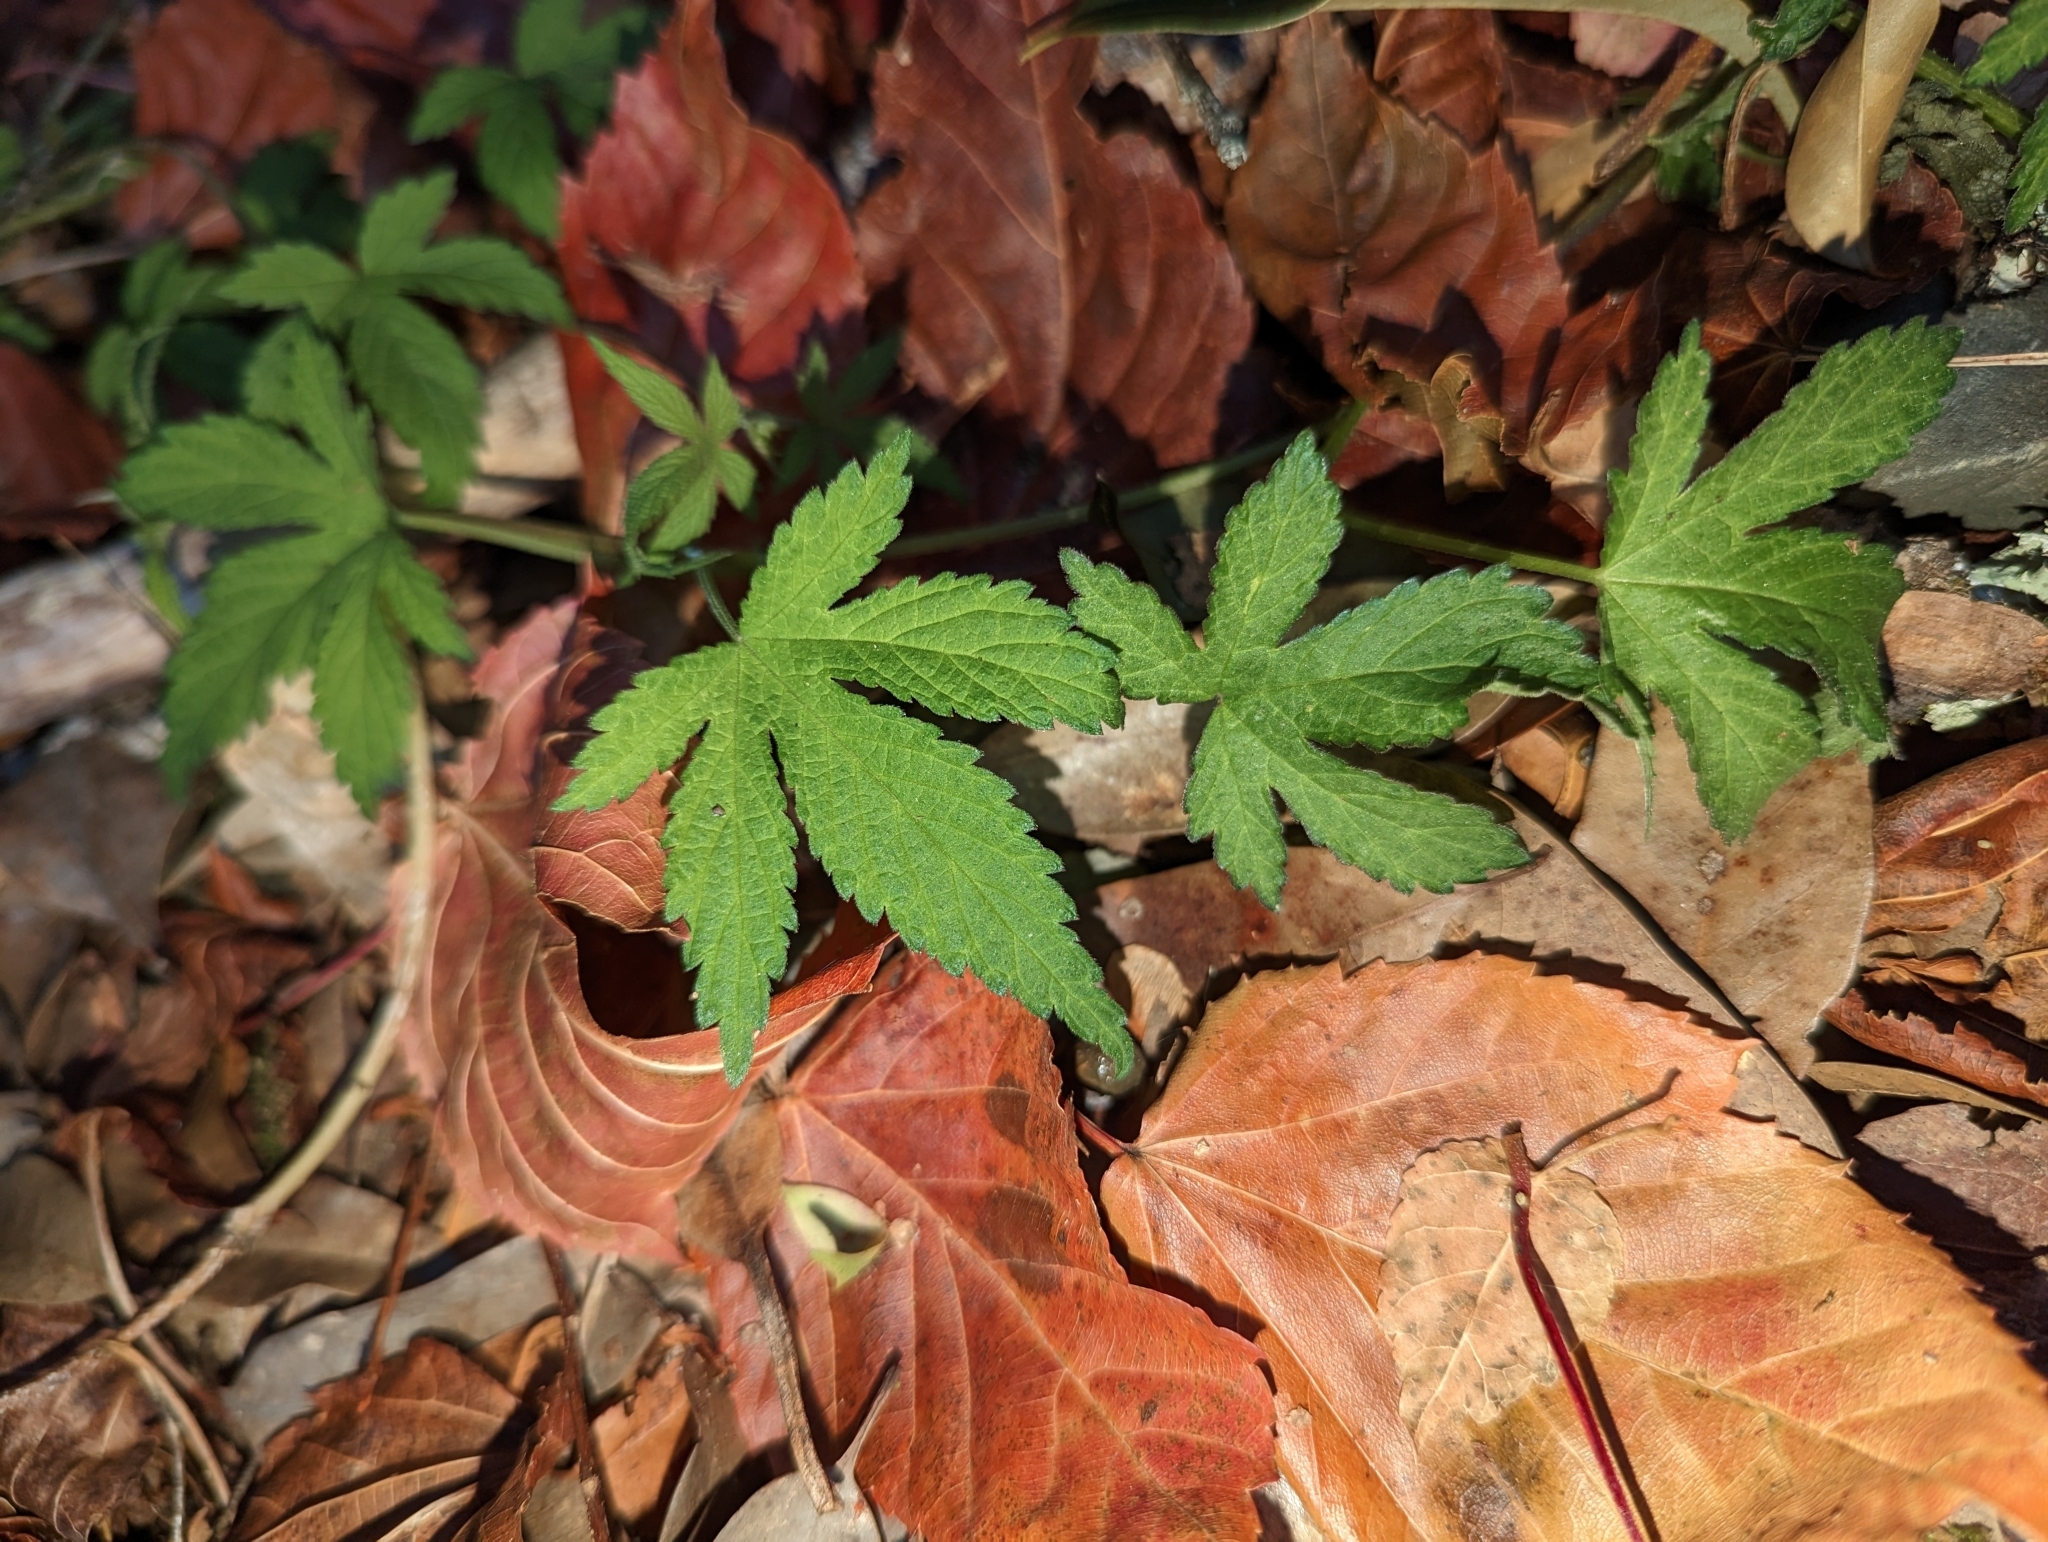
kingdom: Plantae
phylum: Tracheophyta
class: Magnoliopsida
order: Rosales
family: Cannabaceae
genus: Humulus
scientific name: Humulus scandens
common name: Japanese hop
